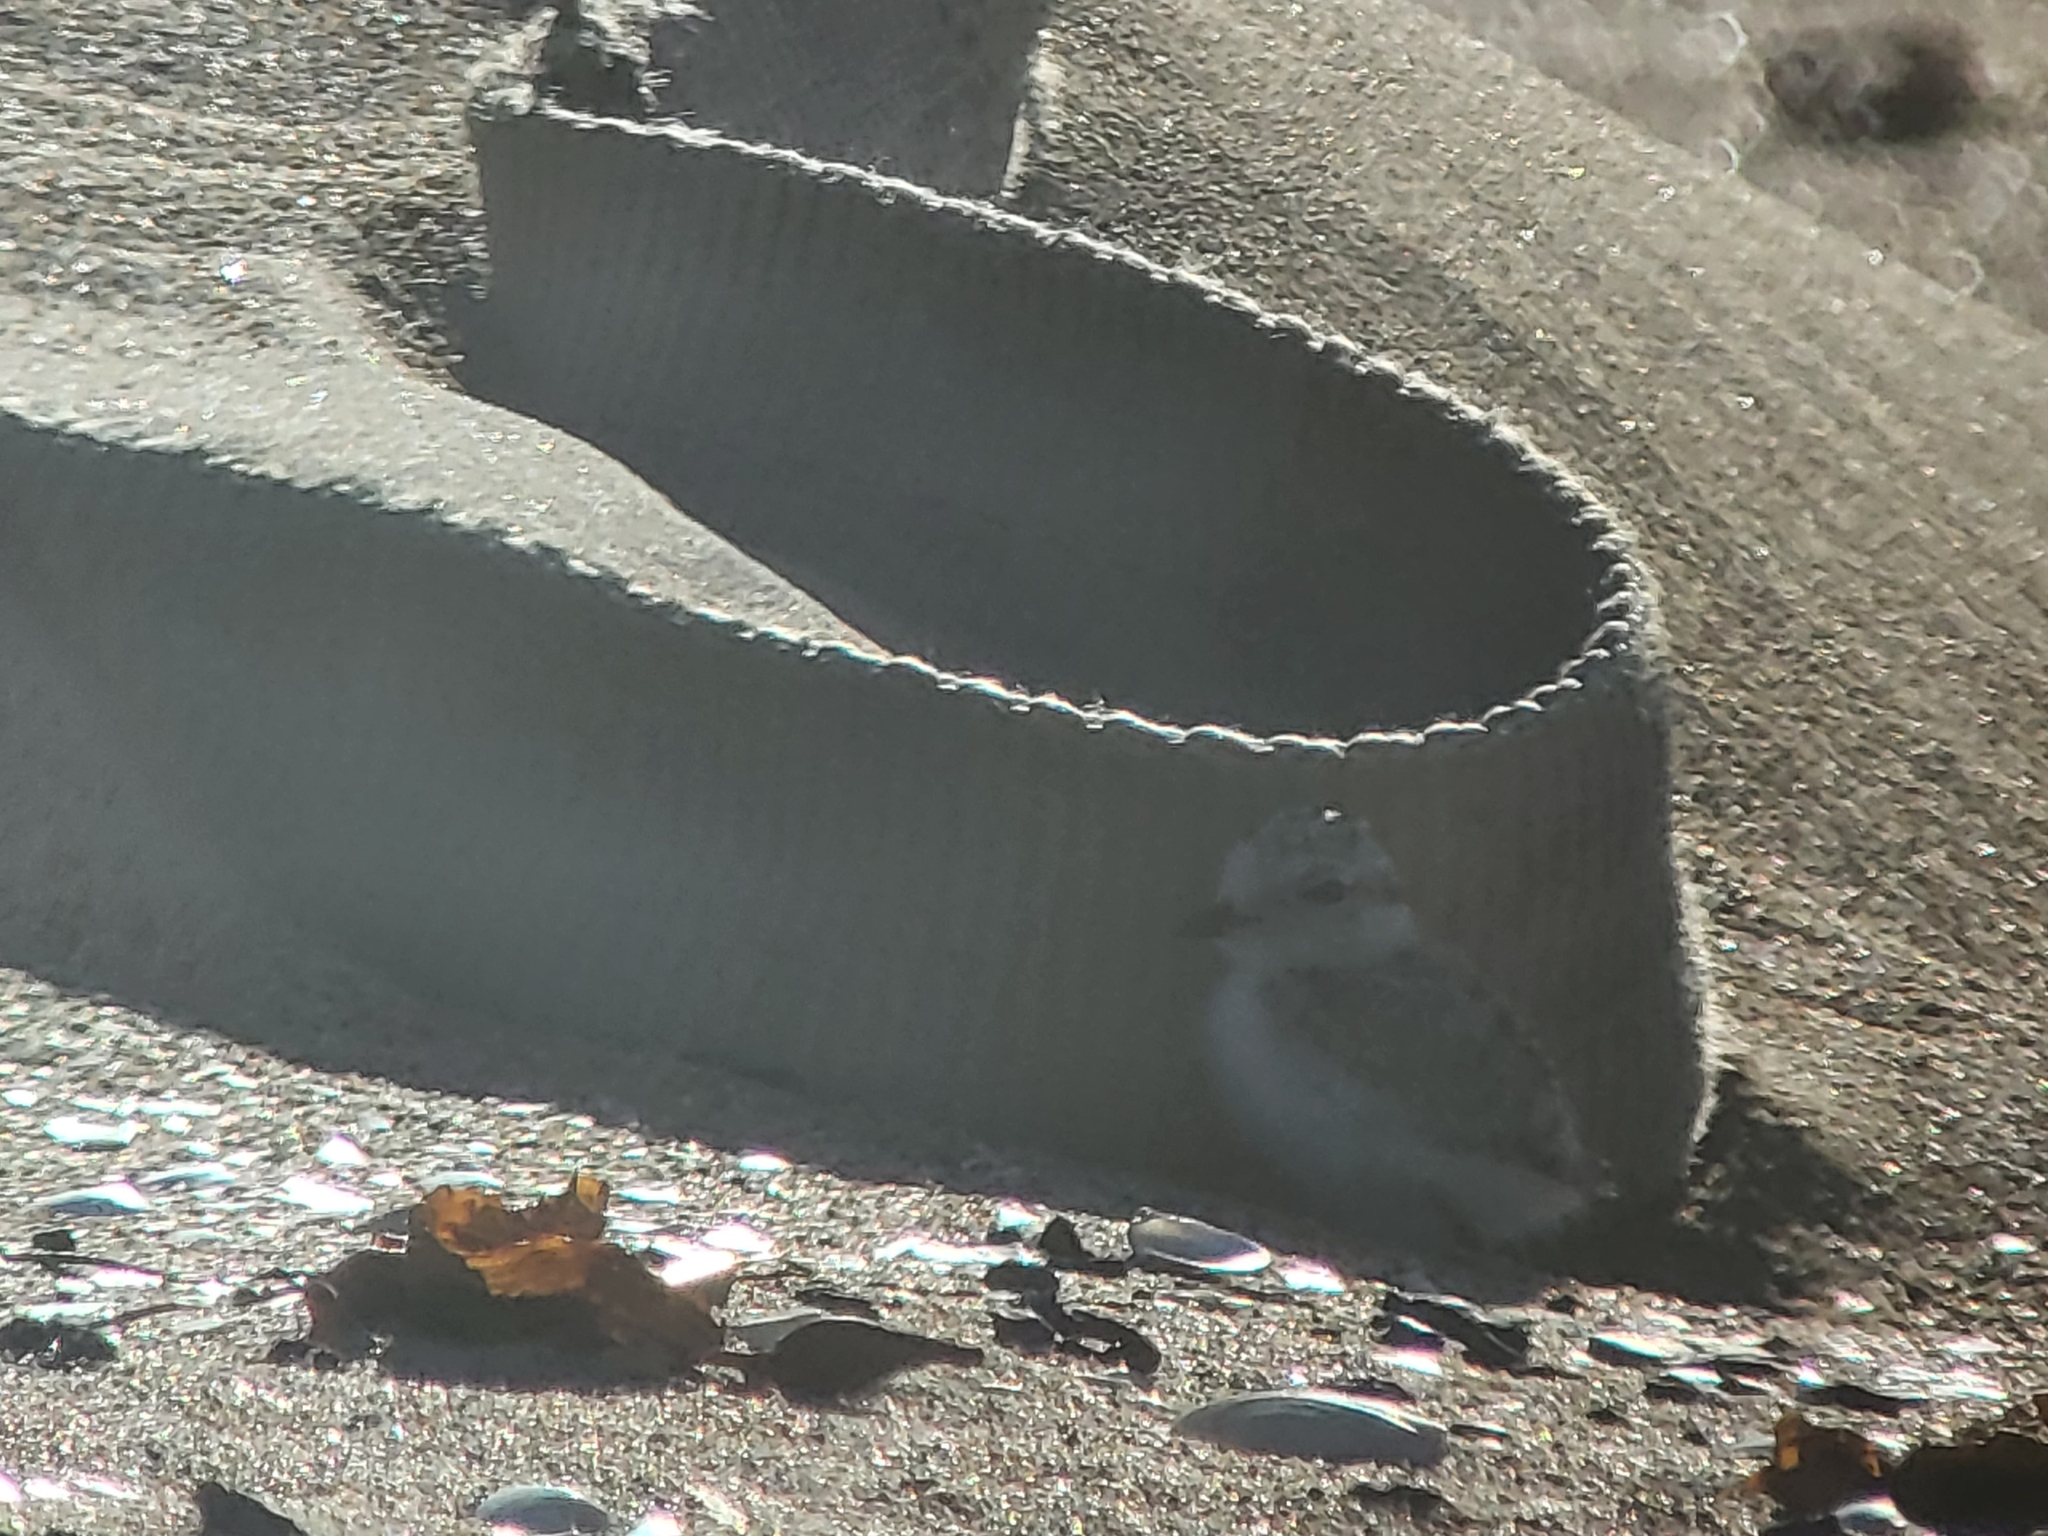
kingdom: Animalia
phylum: Chordata
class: Aves
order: Charadriiformes
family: Charadriidae
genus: Anarhynchus
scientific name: Anarhynchus
